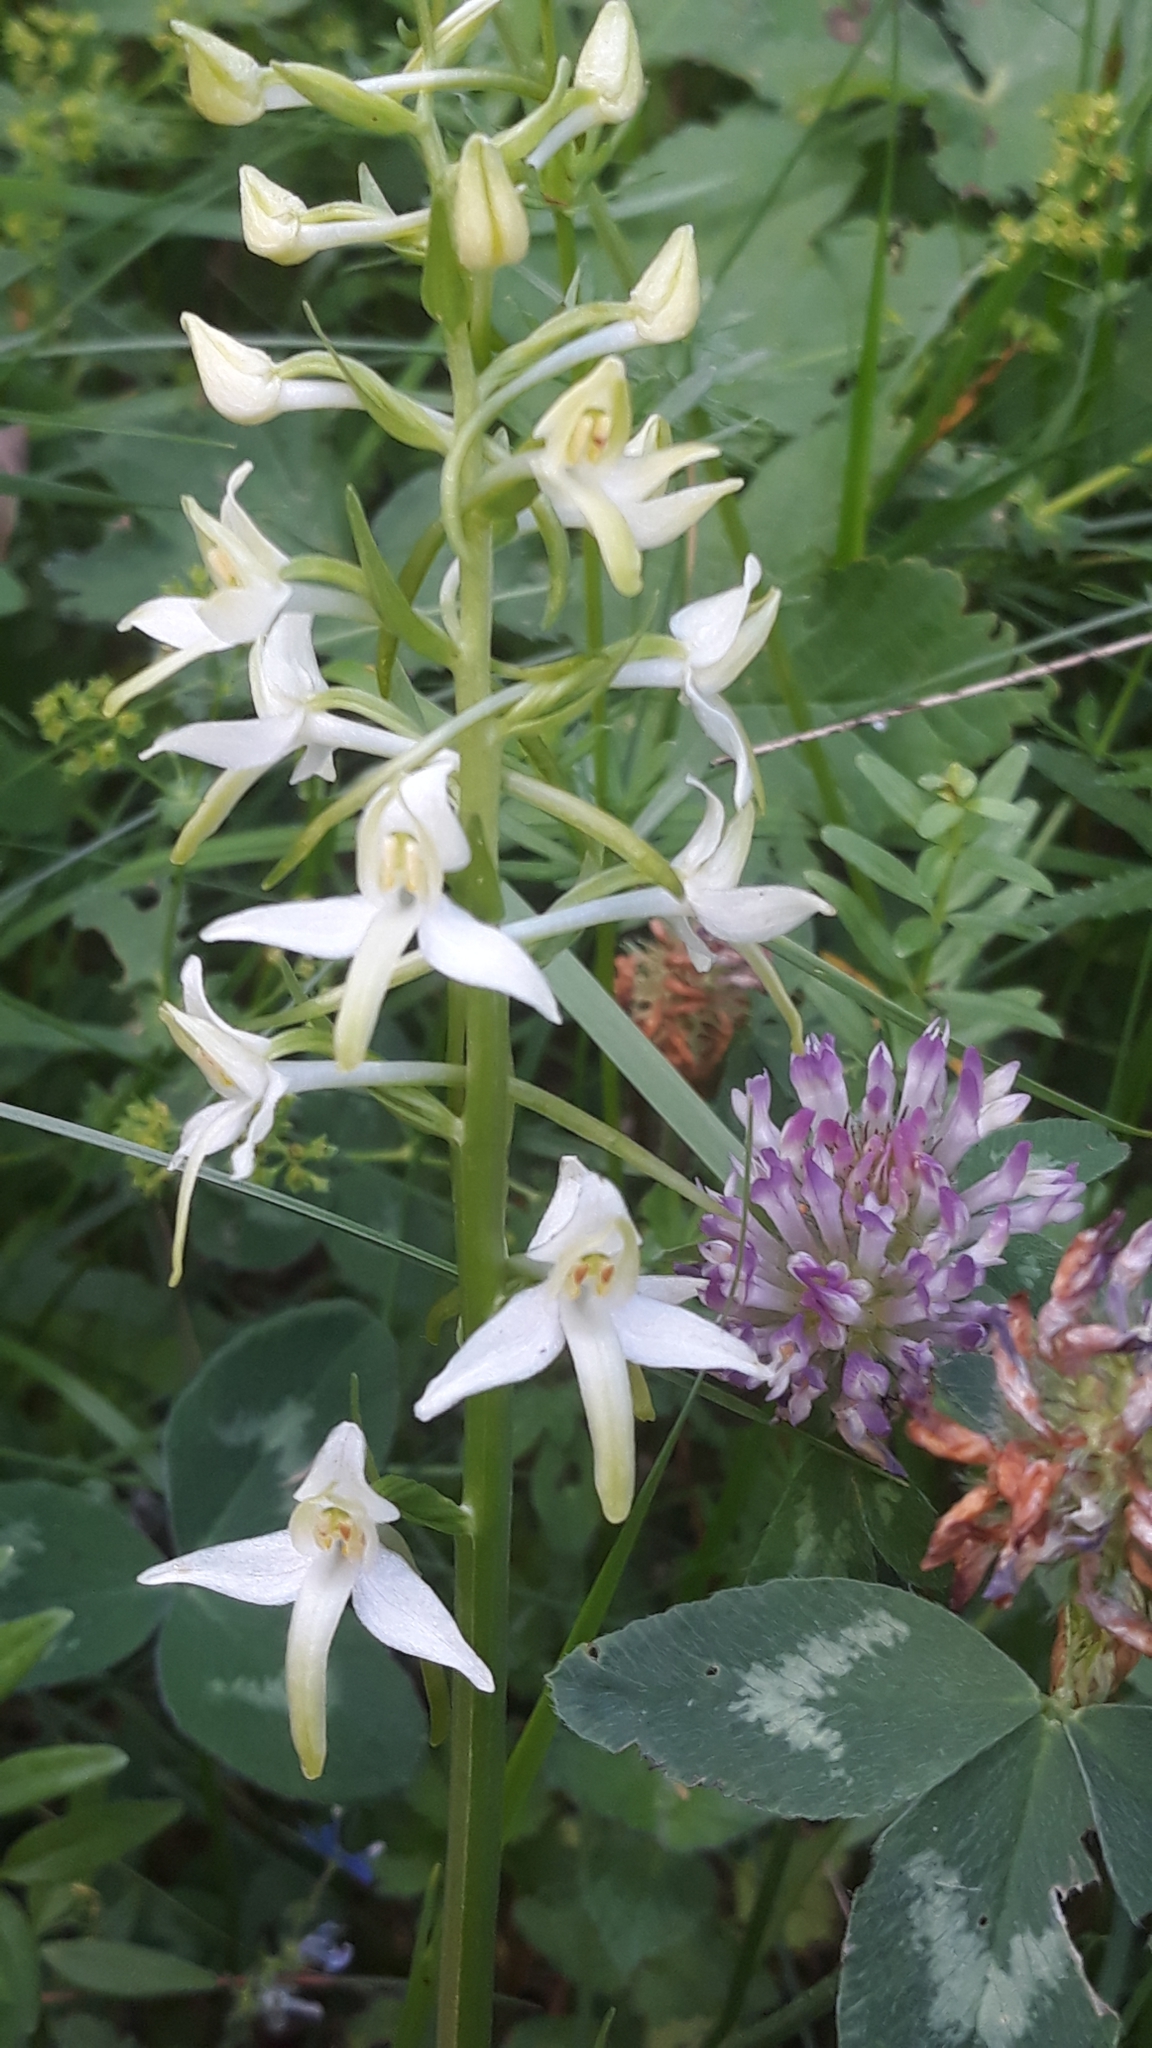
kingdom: Plantae
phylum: Tracheophyta
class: Liliopsida
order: Asparagales
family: Orchidaceae
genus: Platanthera
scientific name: Platanthera bifolia
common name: Lesser butterfly-orchid
